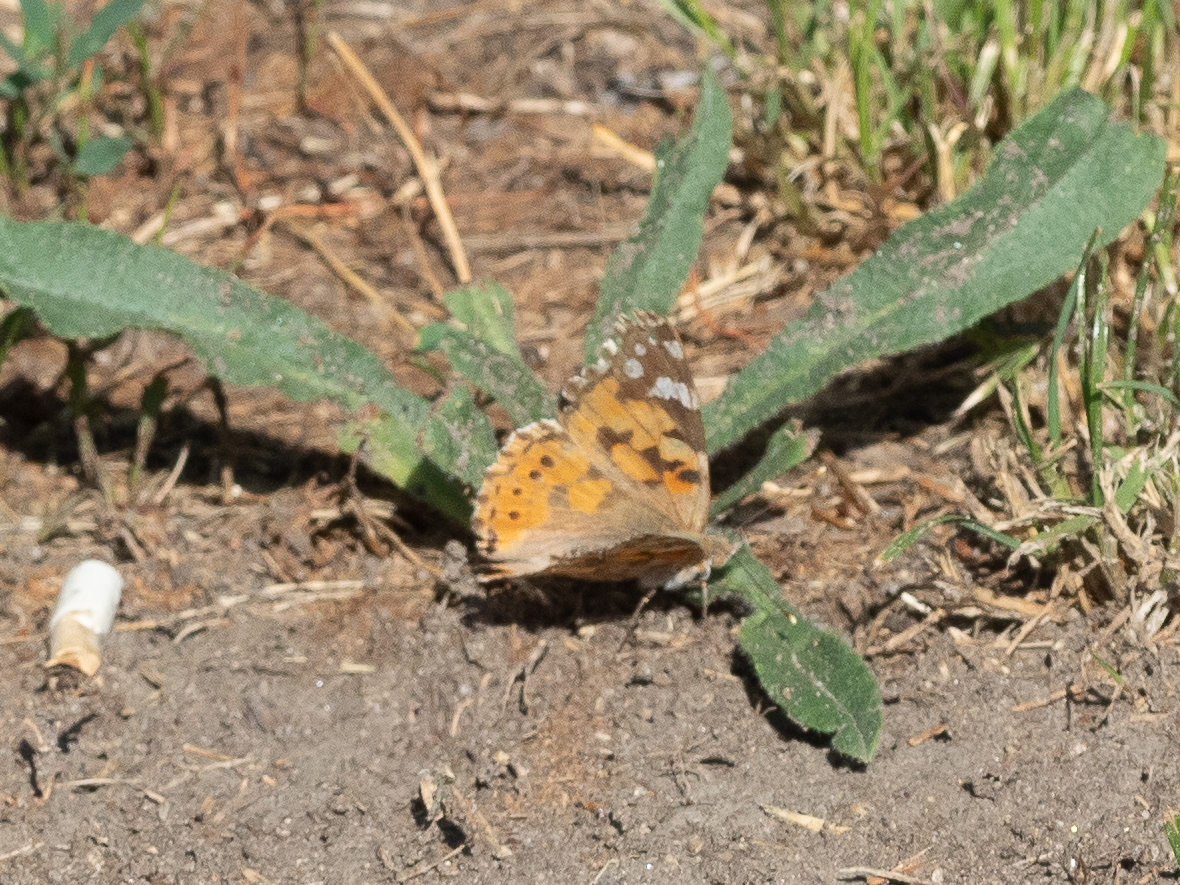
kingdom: Animalia
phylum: Arthropoda
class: Insecta
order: Lepidoptera
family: Nymphalidae
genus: Vanessa
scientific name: Vanessa cardui
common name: Painted lady
